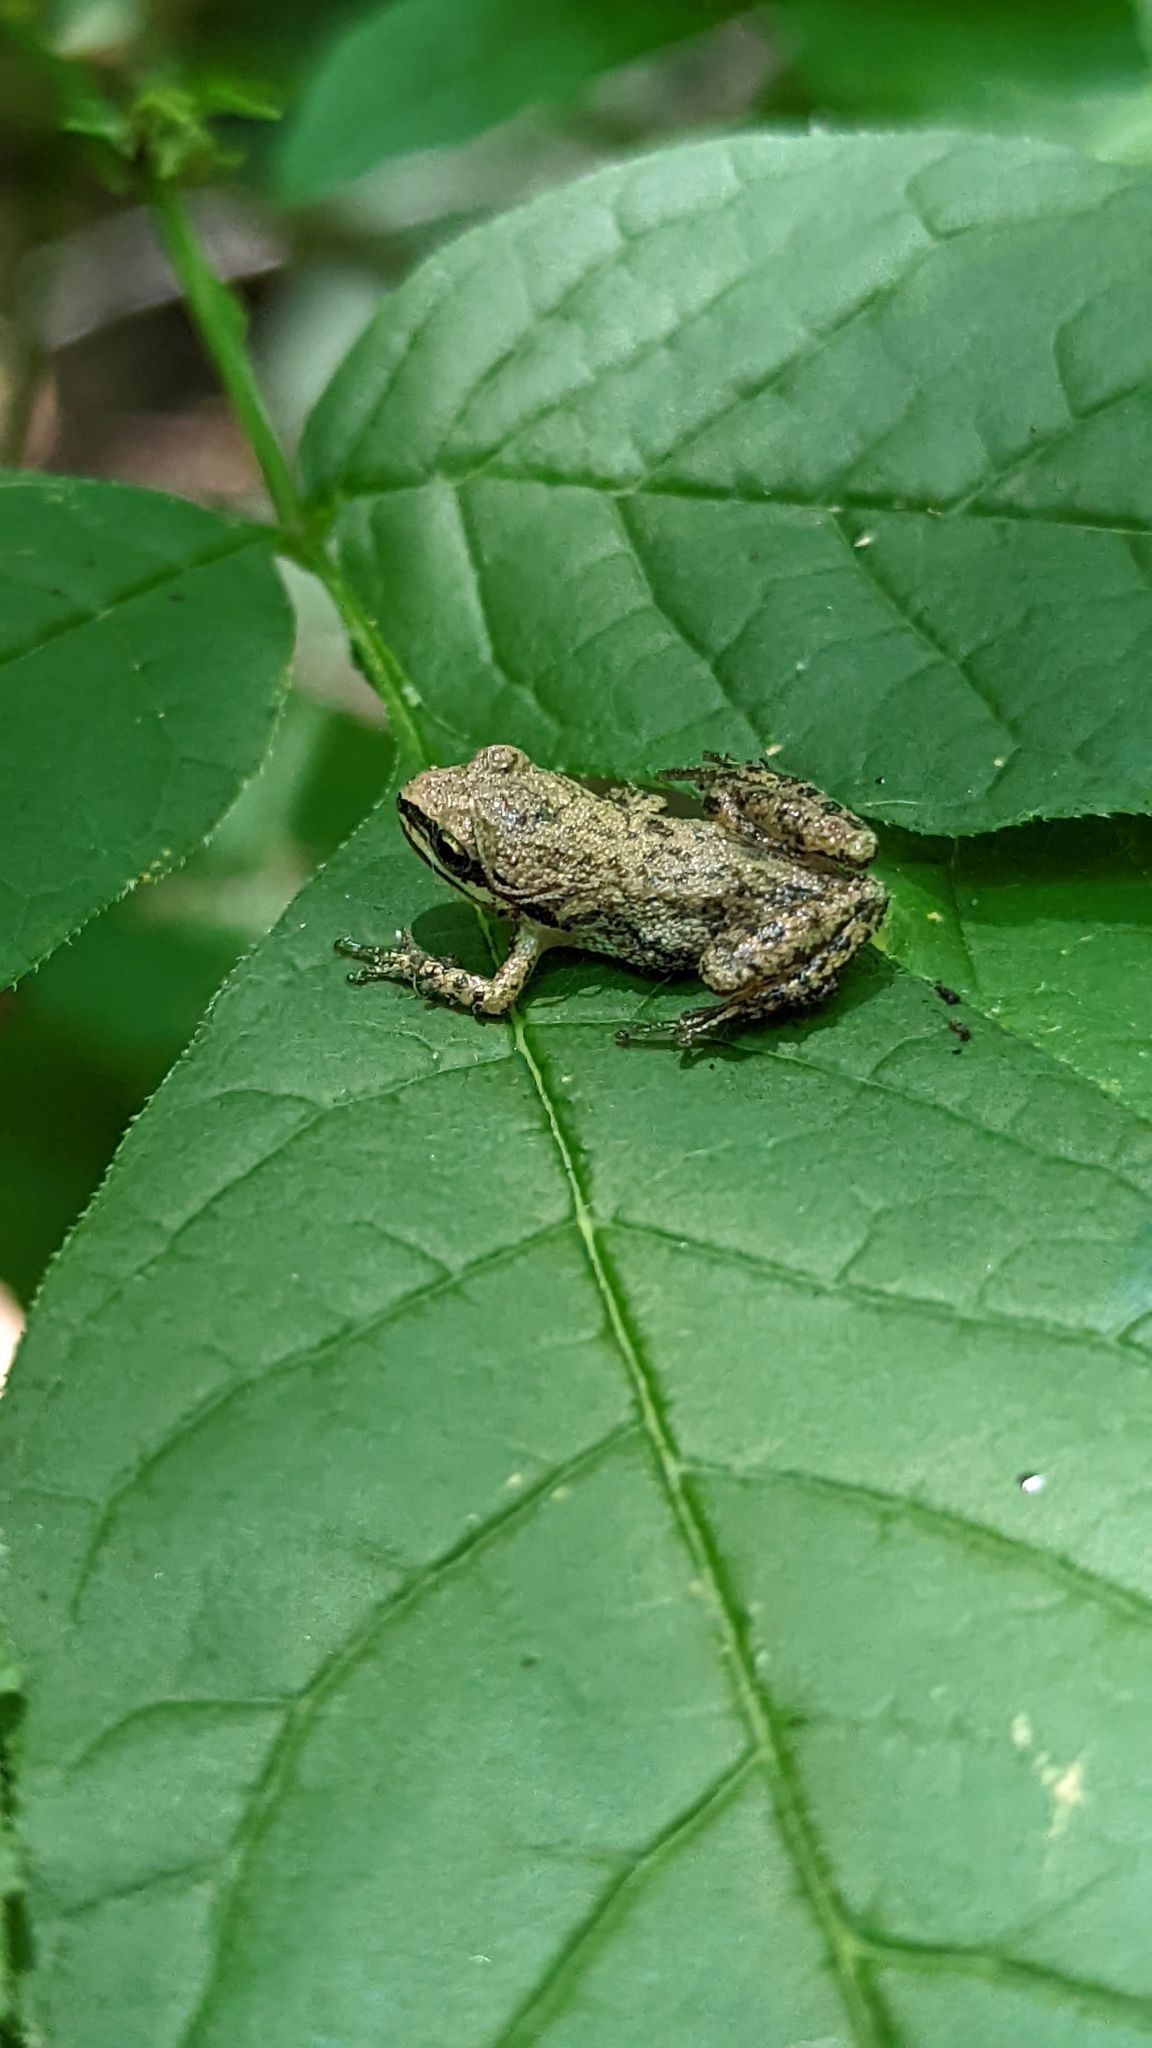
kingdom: Animalia
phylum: Chordata
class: Amphibia
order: Anura
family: Hylidae
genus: Pseudacris
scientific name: Pseudacris triseriata
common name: Western chorus frog
